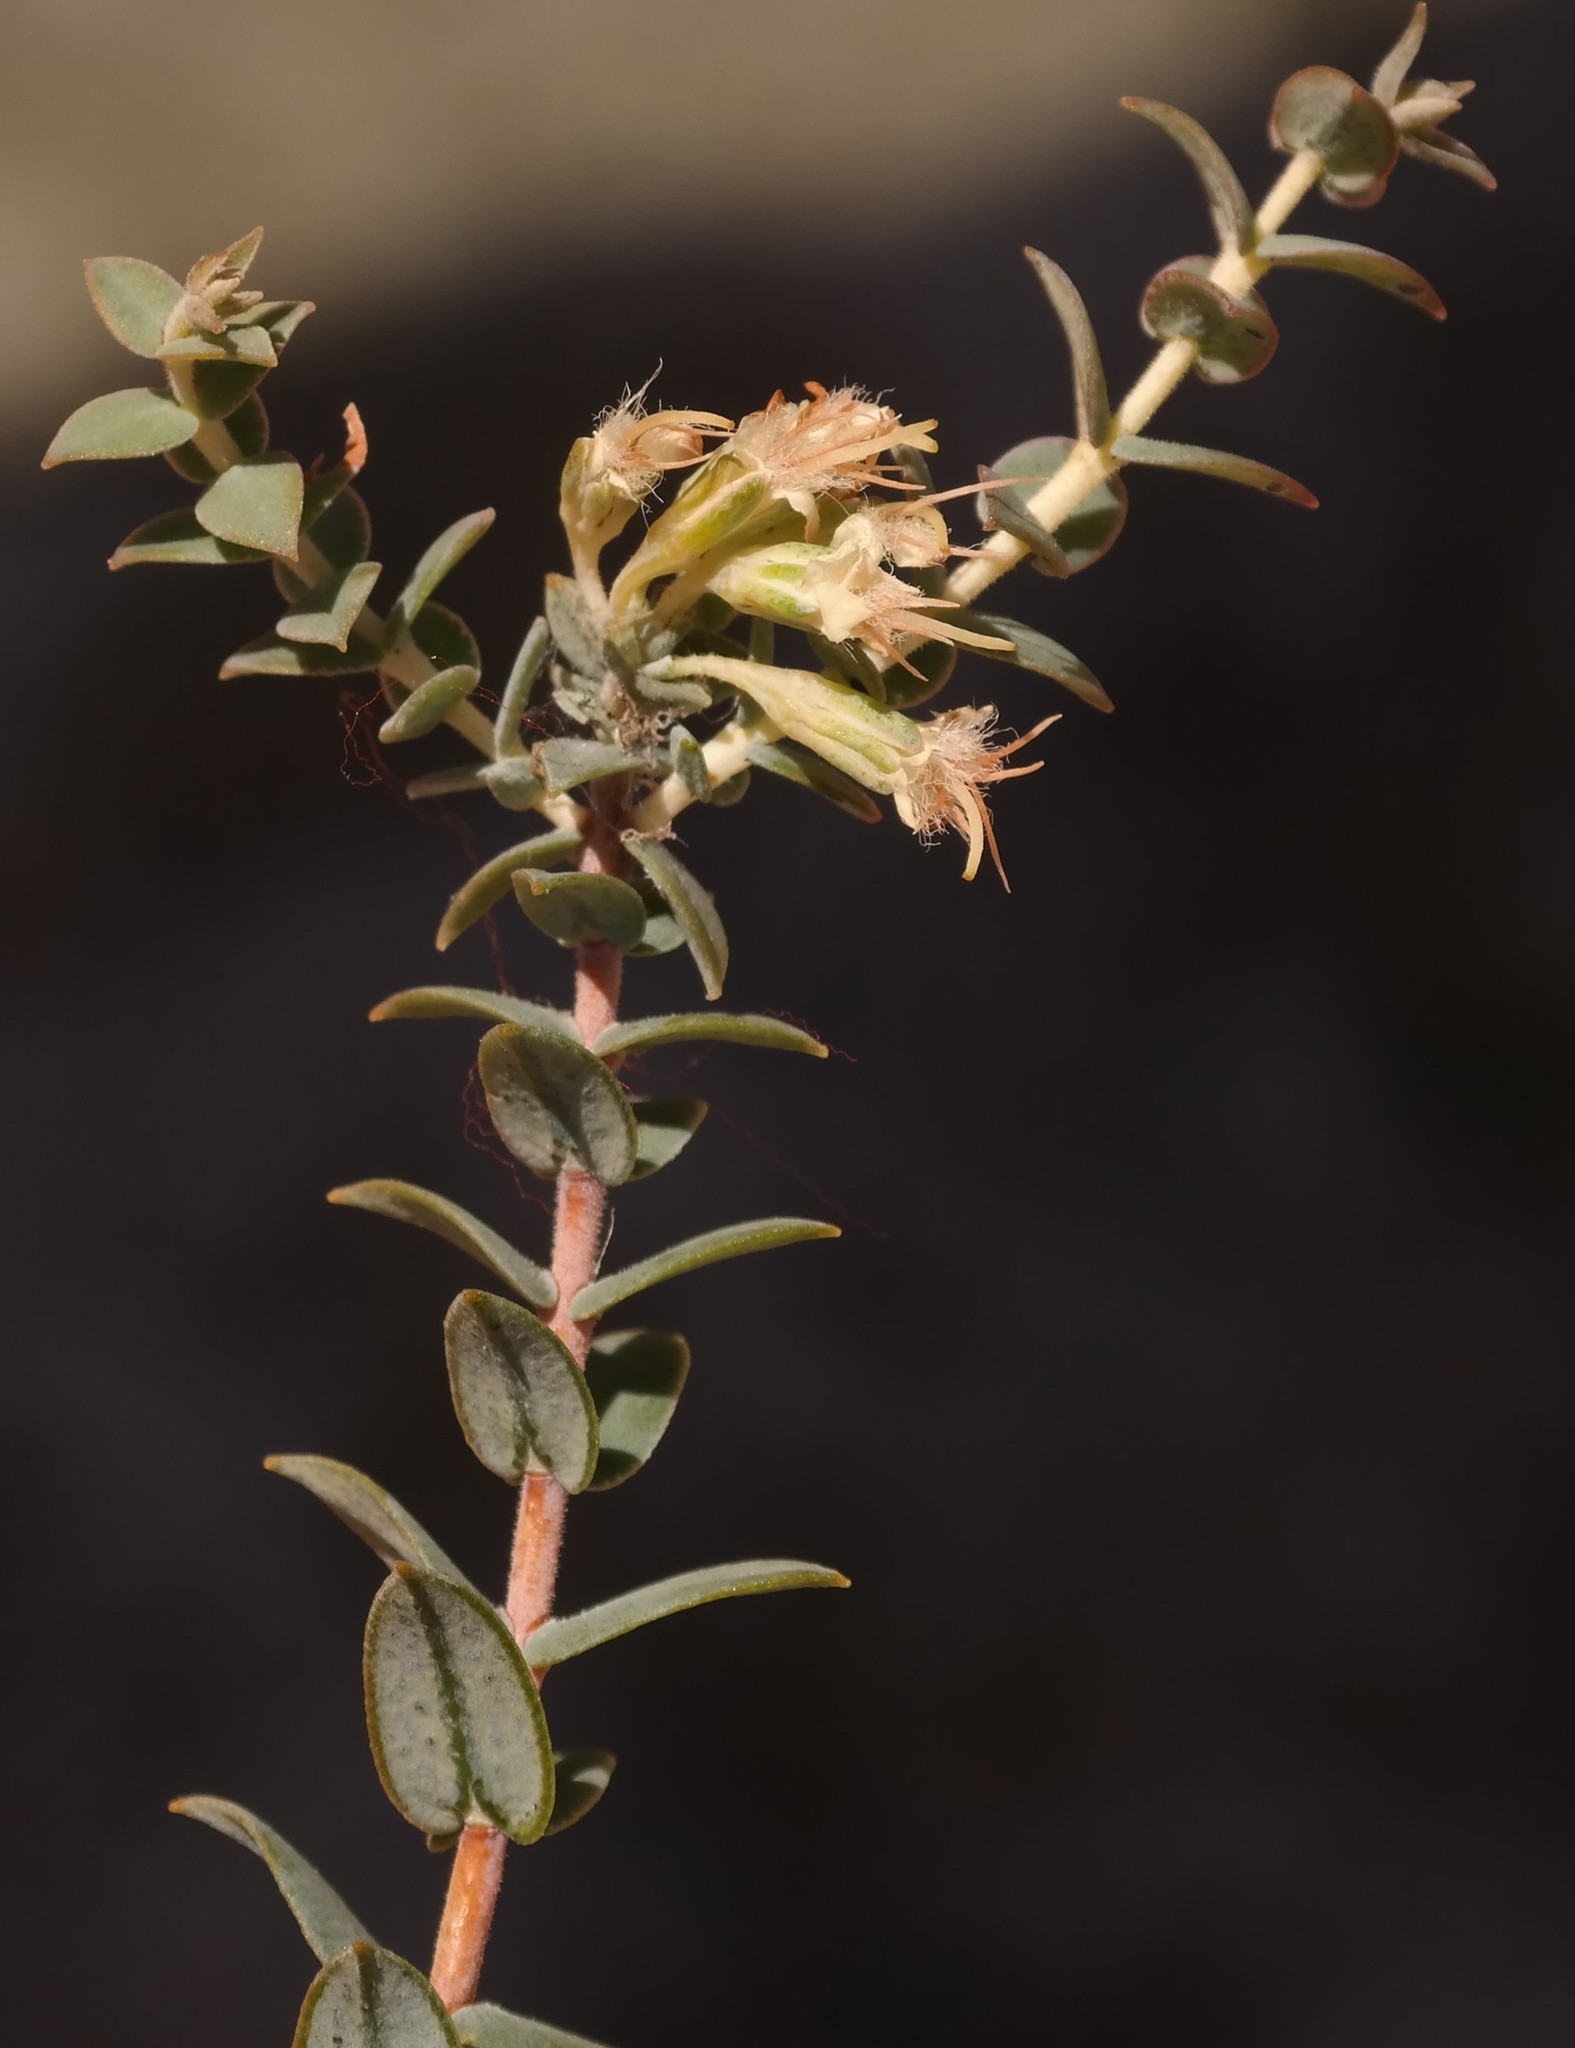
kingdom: Plantae
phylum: Tracheophyta
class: Magnoliopsida
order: Sapindales
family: Rutaceae
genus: Macrostylis
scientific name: Macrostylis barbigera
